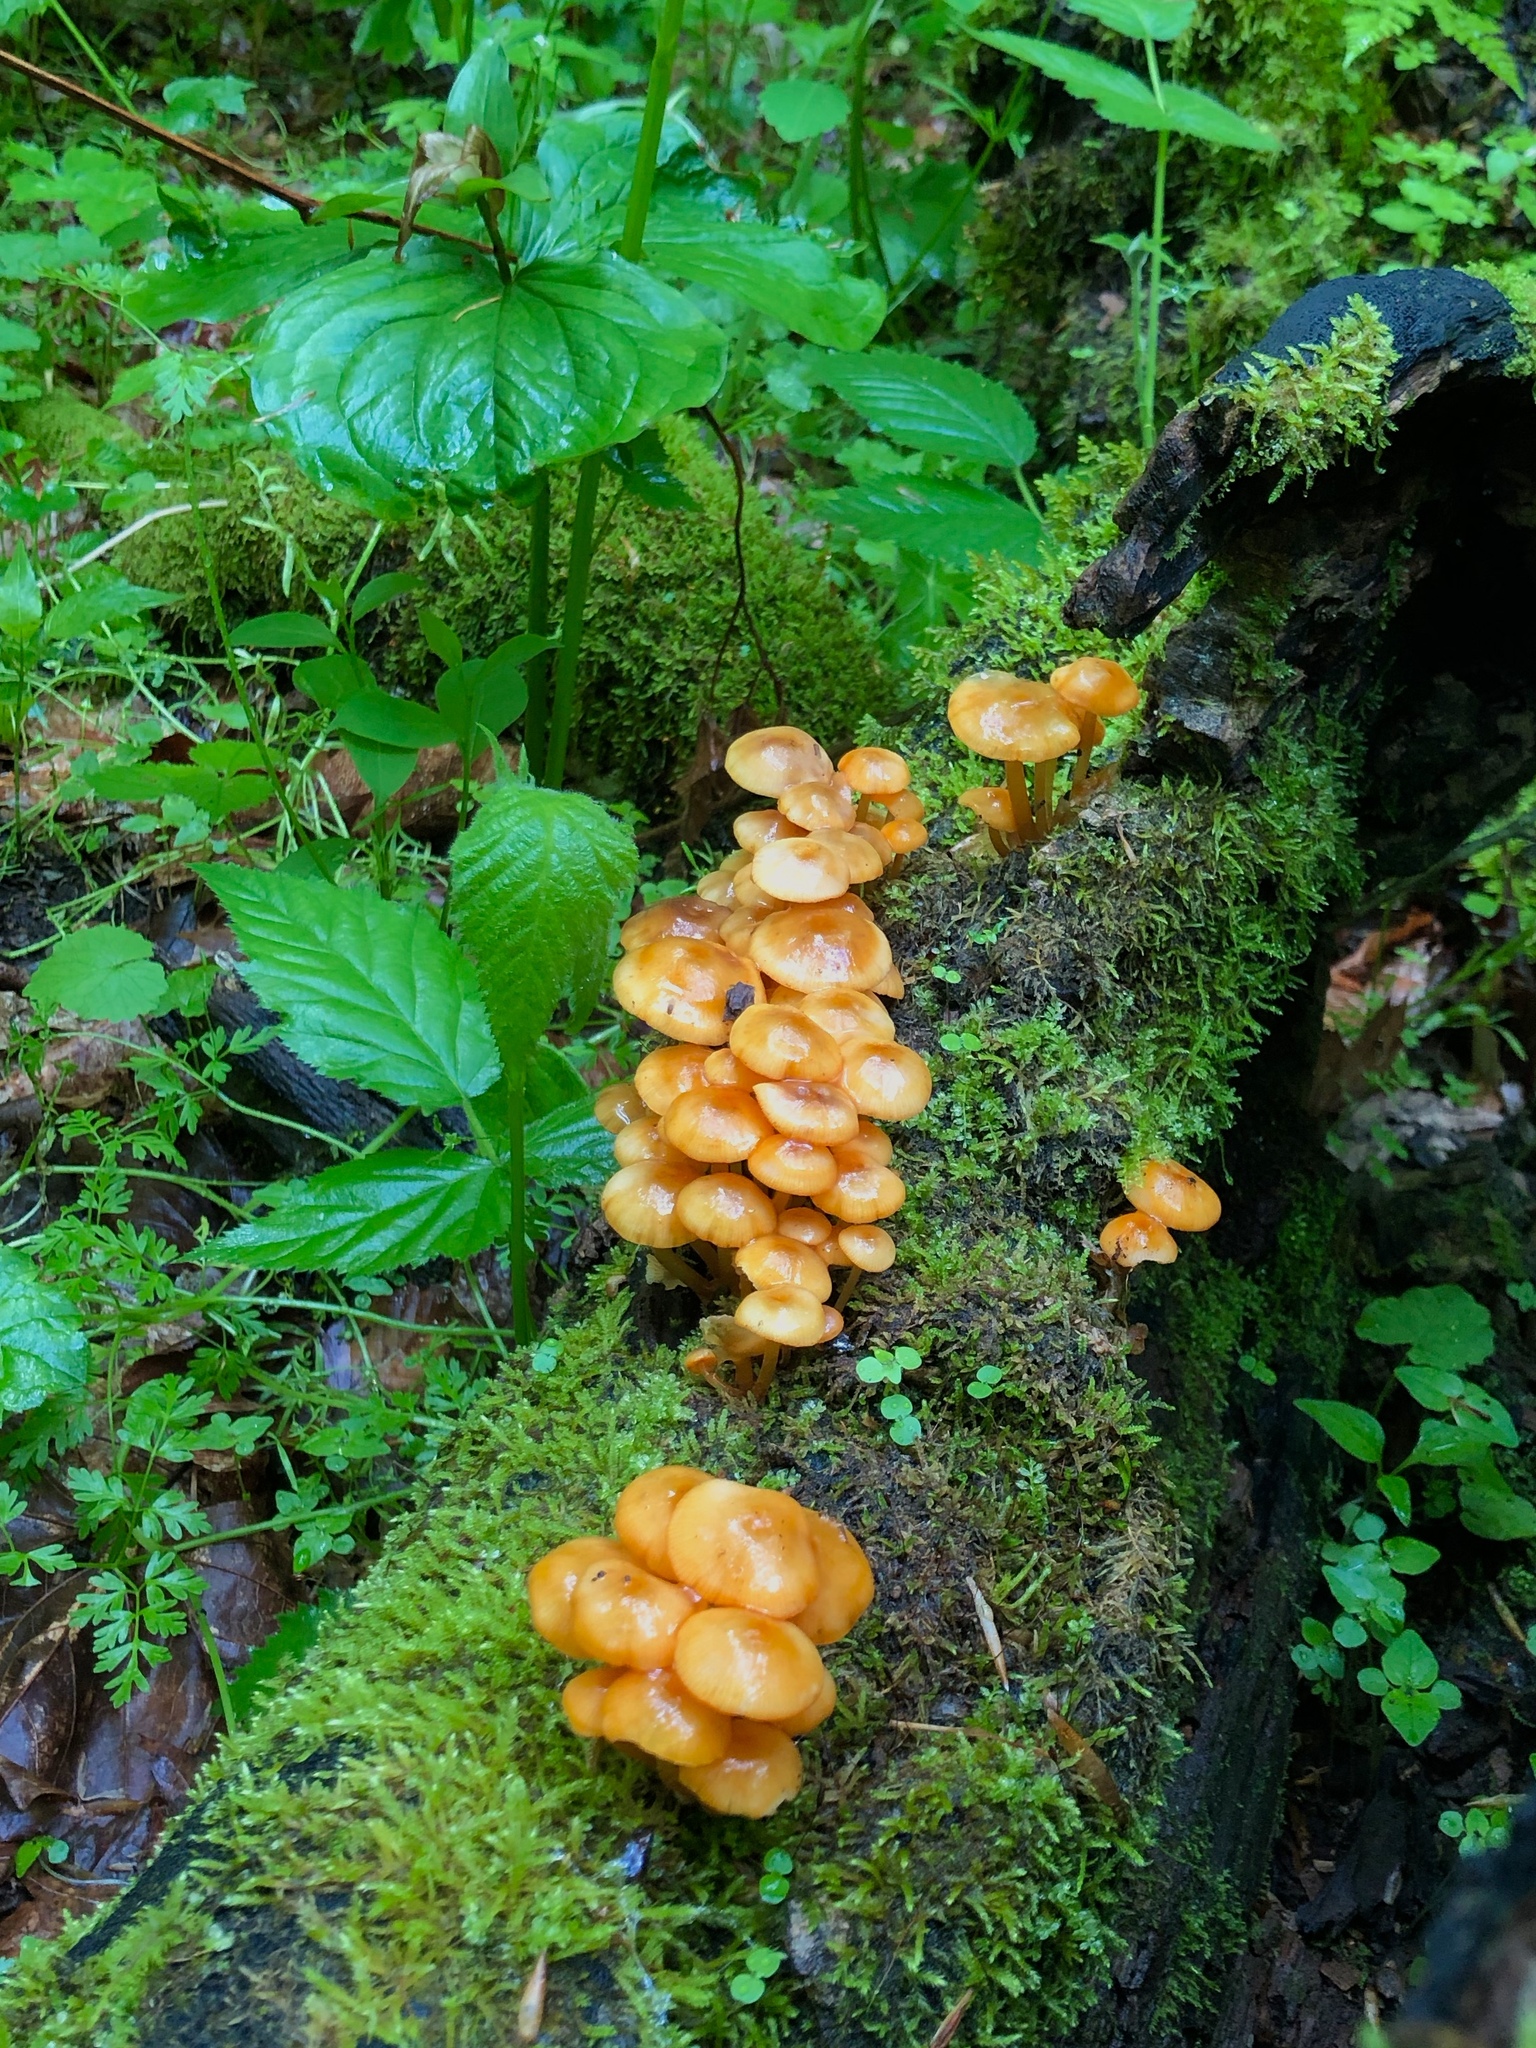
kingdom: Fungi
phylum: Basidiomycota
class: Agaricomycetes
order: Agaricales
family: Mycenaceae
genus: Mycena
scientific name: Mycena leaiana
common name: Orange mycena
